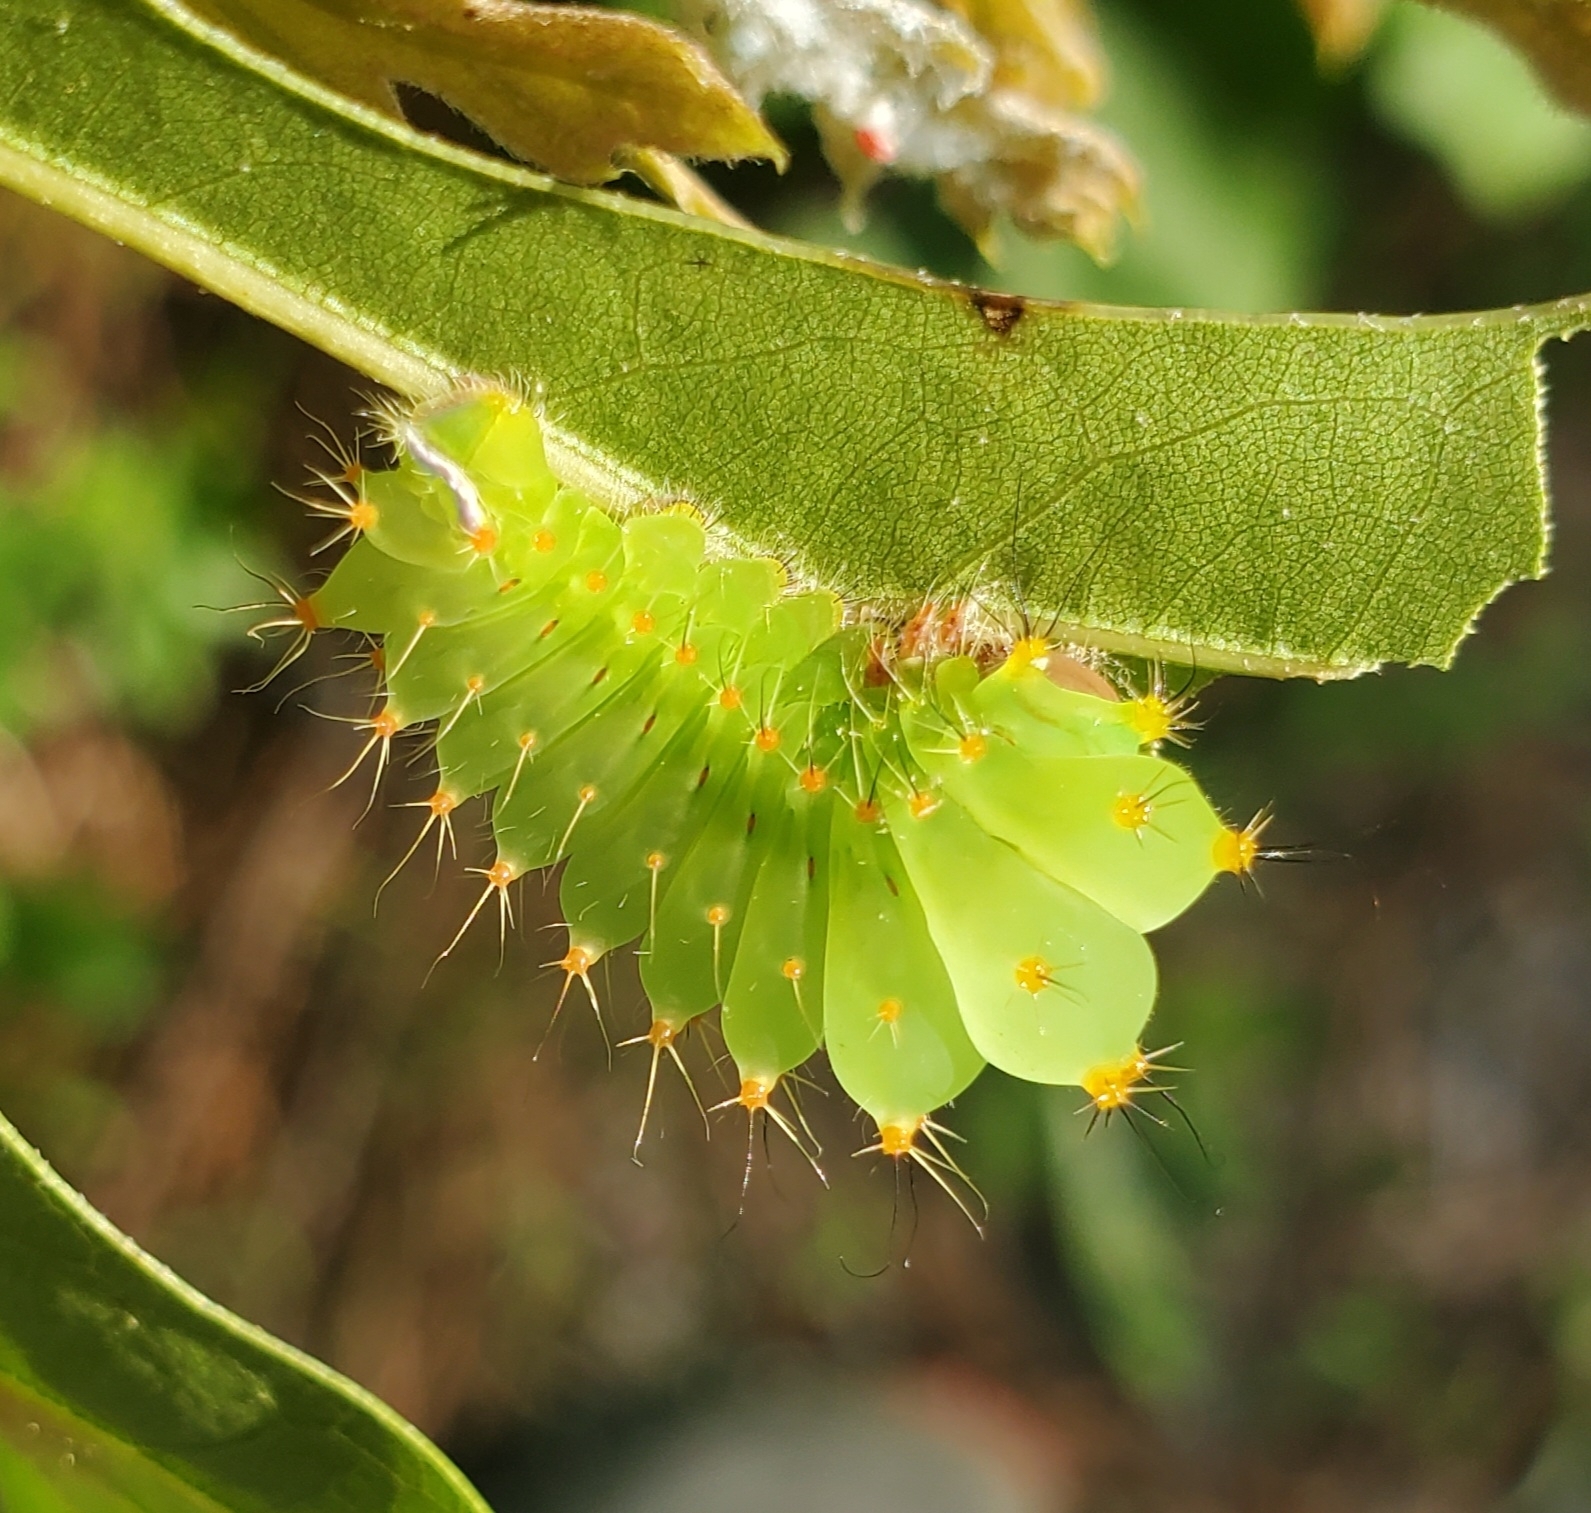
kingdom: Animalia
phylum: Arthropoda
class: Insecta
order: Lepidoptera
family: Saturniidae
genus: Antheraea
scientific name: Antheraea polyphemus
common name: Polyphemus moth
